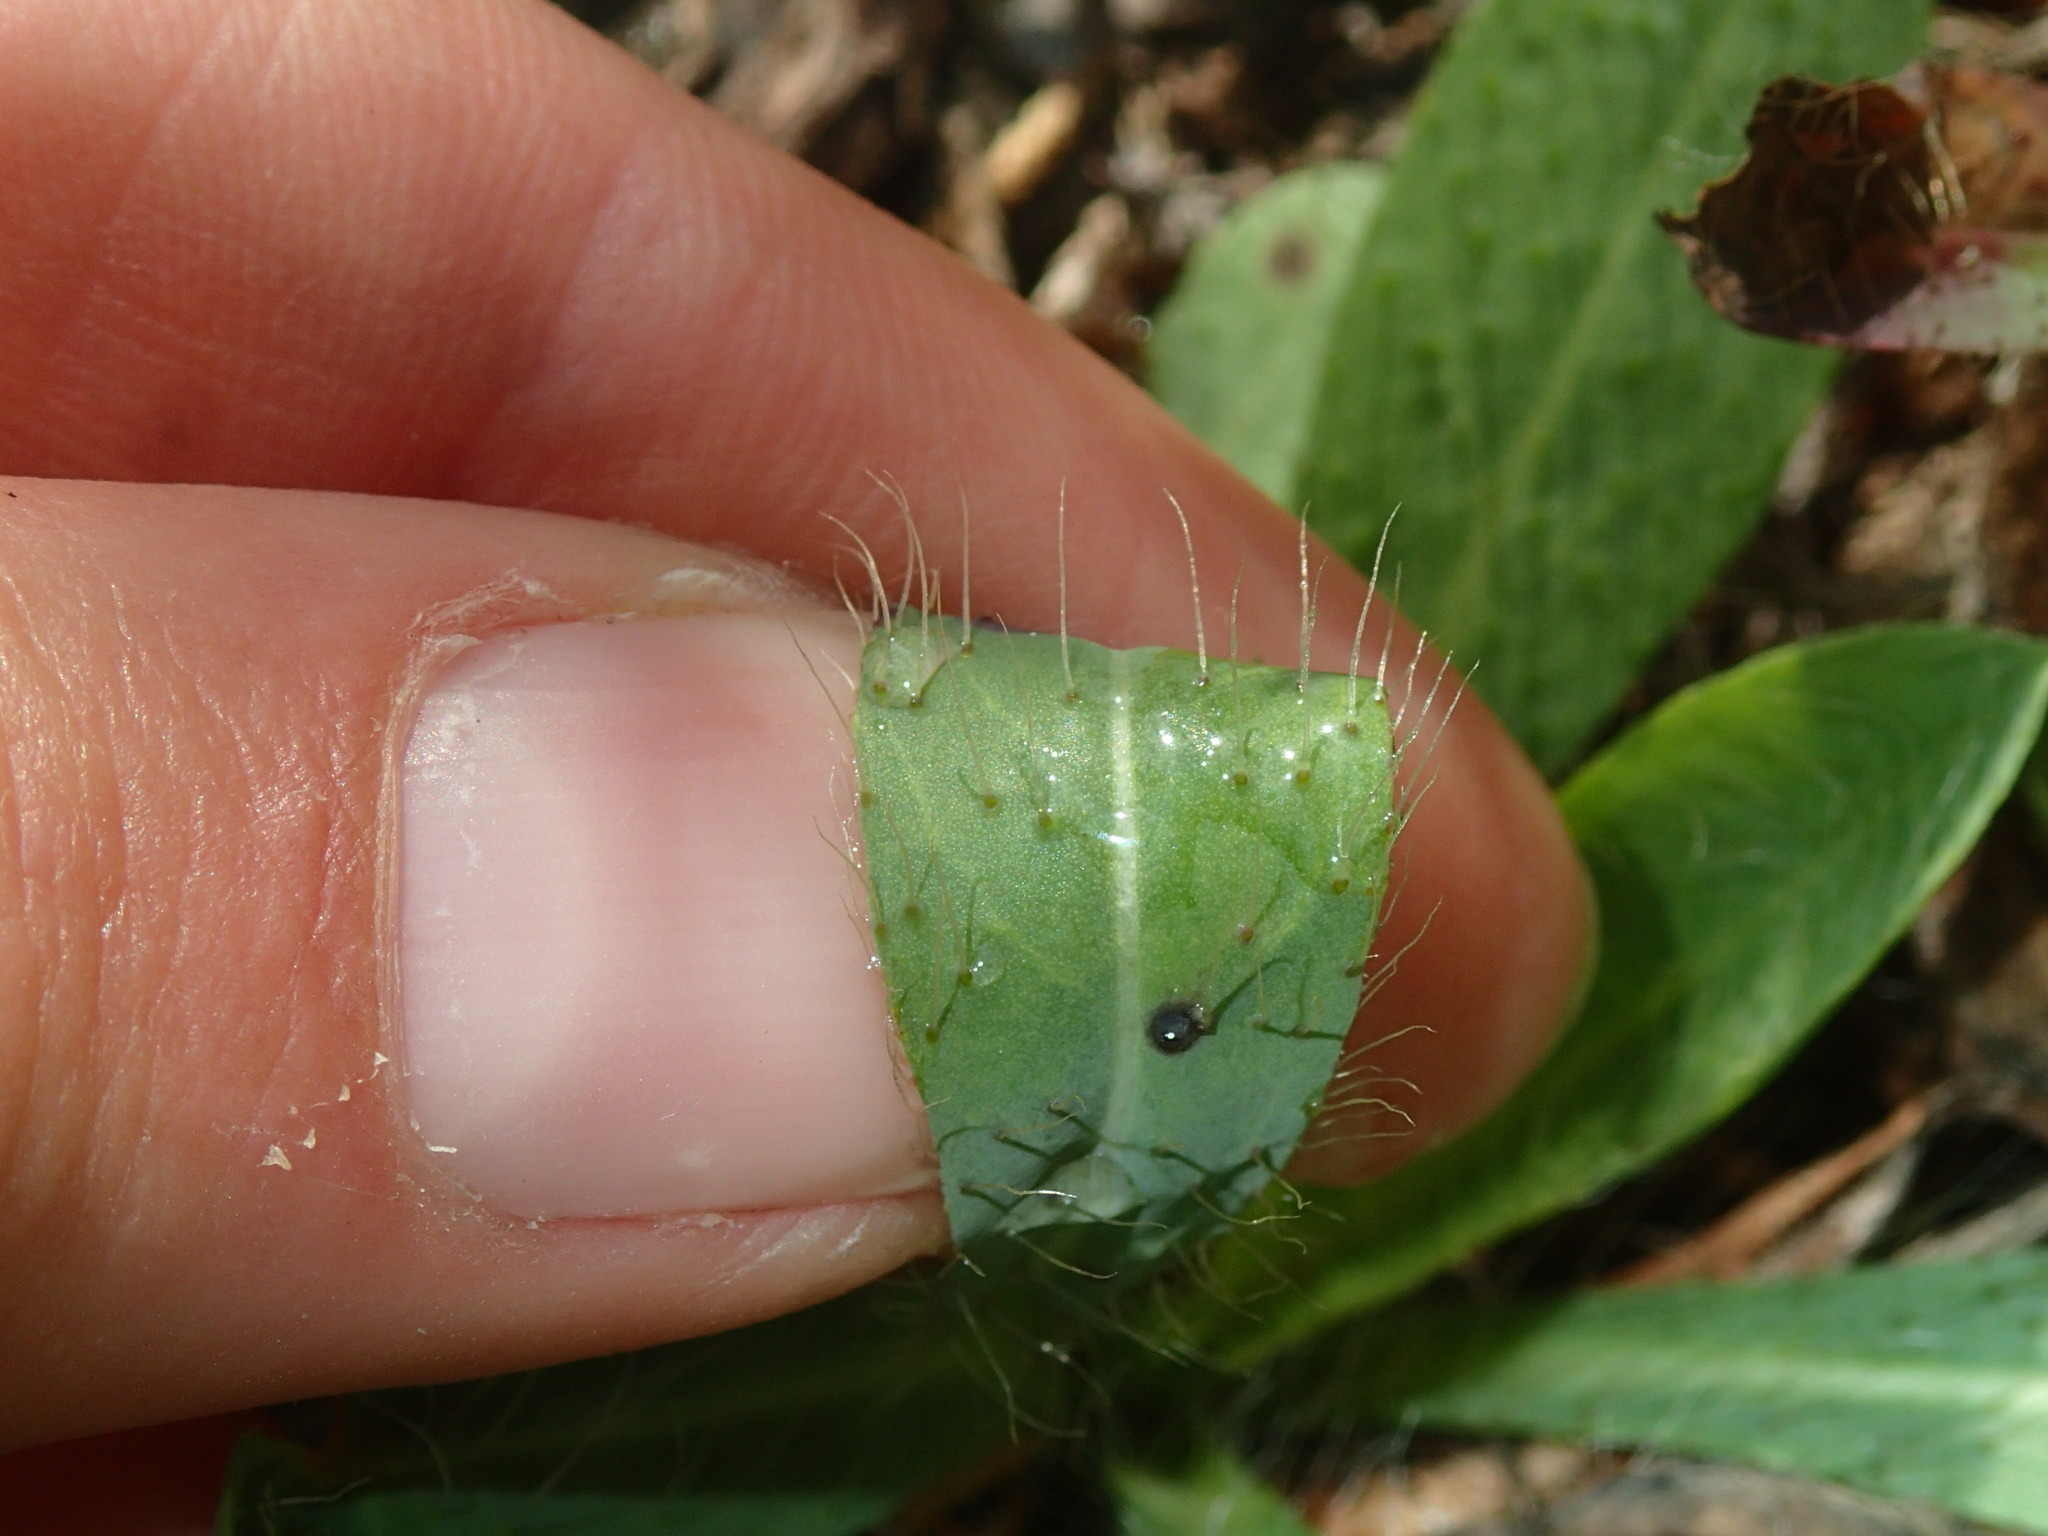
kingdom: Plantae
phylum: Tracheophyta
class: Magnoliopsida
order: Asterales
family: Asteraceae
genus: Pilosella
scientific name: Pilosella piloselloides
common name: Glaucous king-devil
